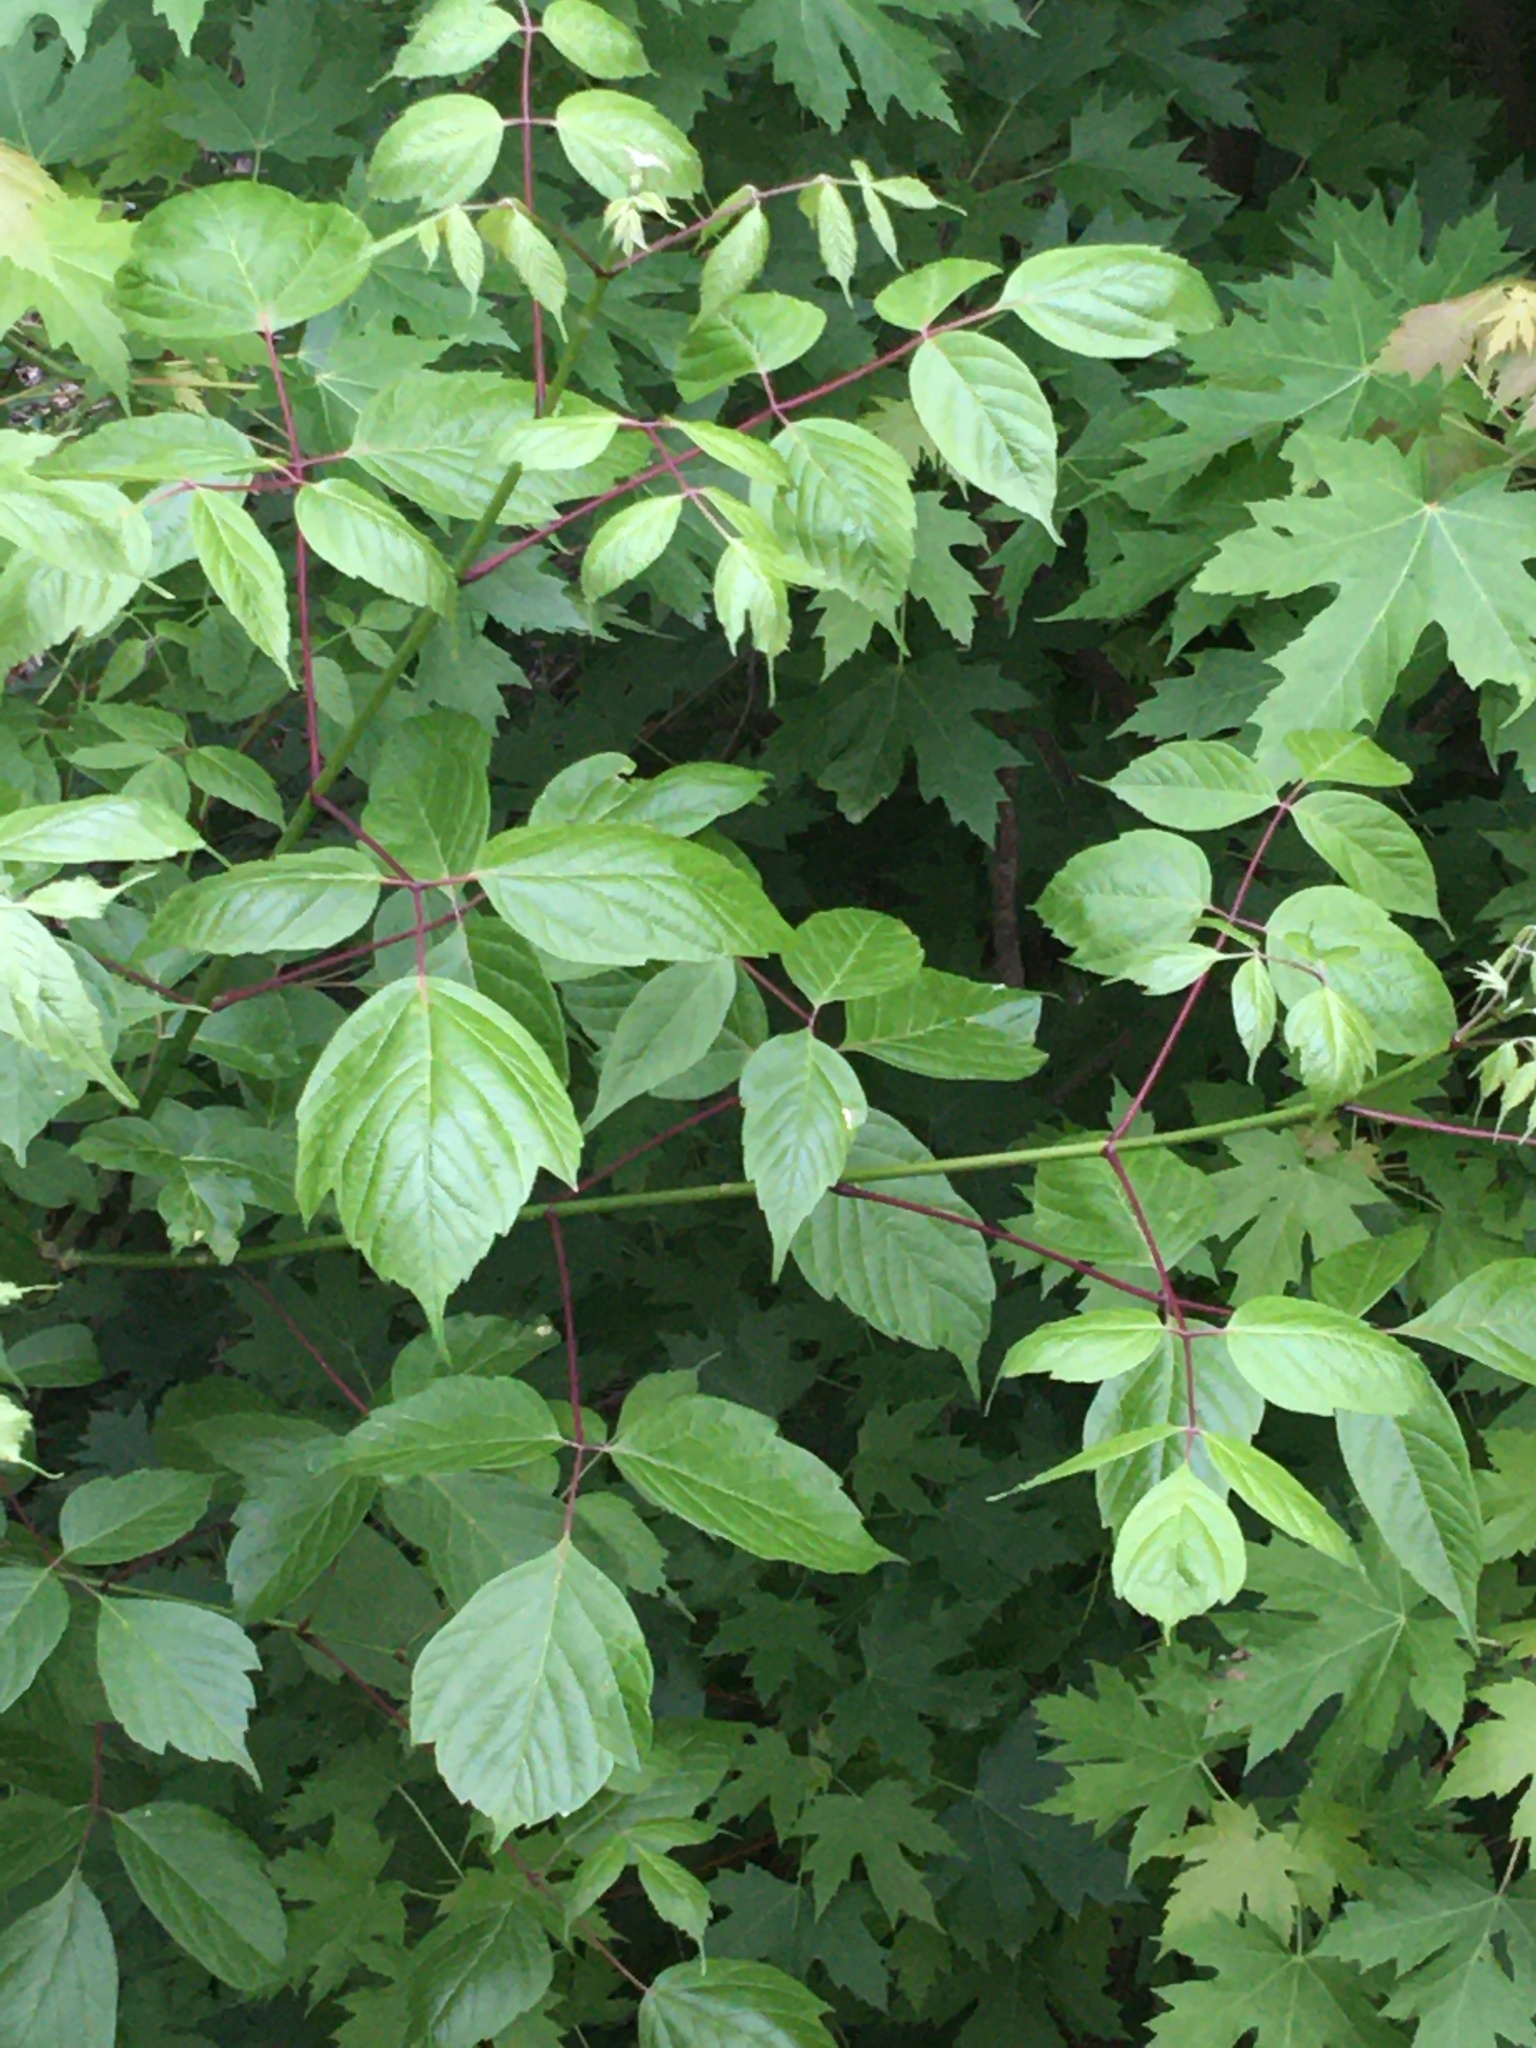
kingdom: Plantae
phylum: Tracheophyta
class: Magnoliopsida
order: Sapindales
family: Sapindaceae
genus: Acer
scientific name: Acer negundo
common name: Ashleaf maple
